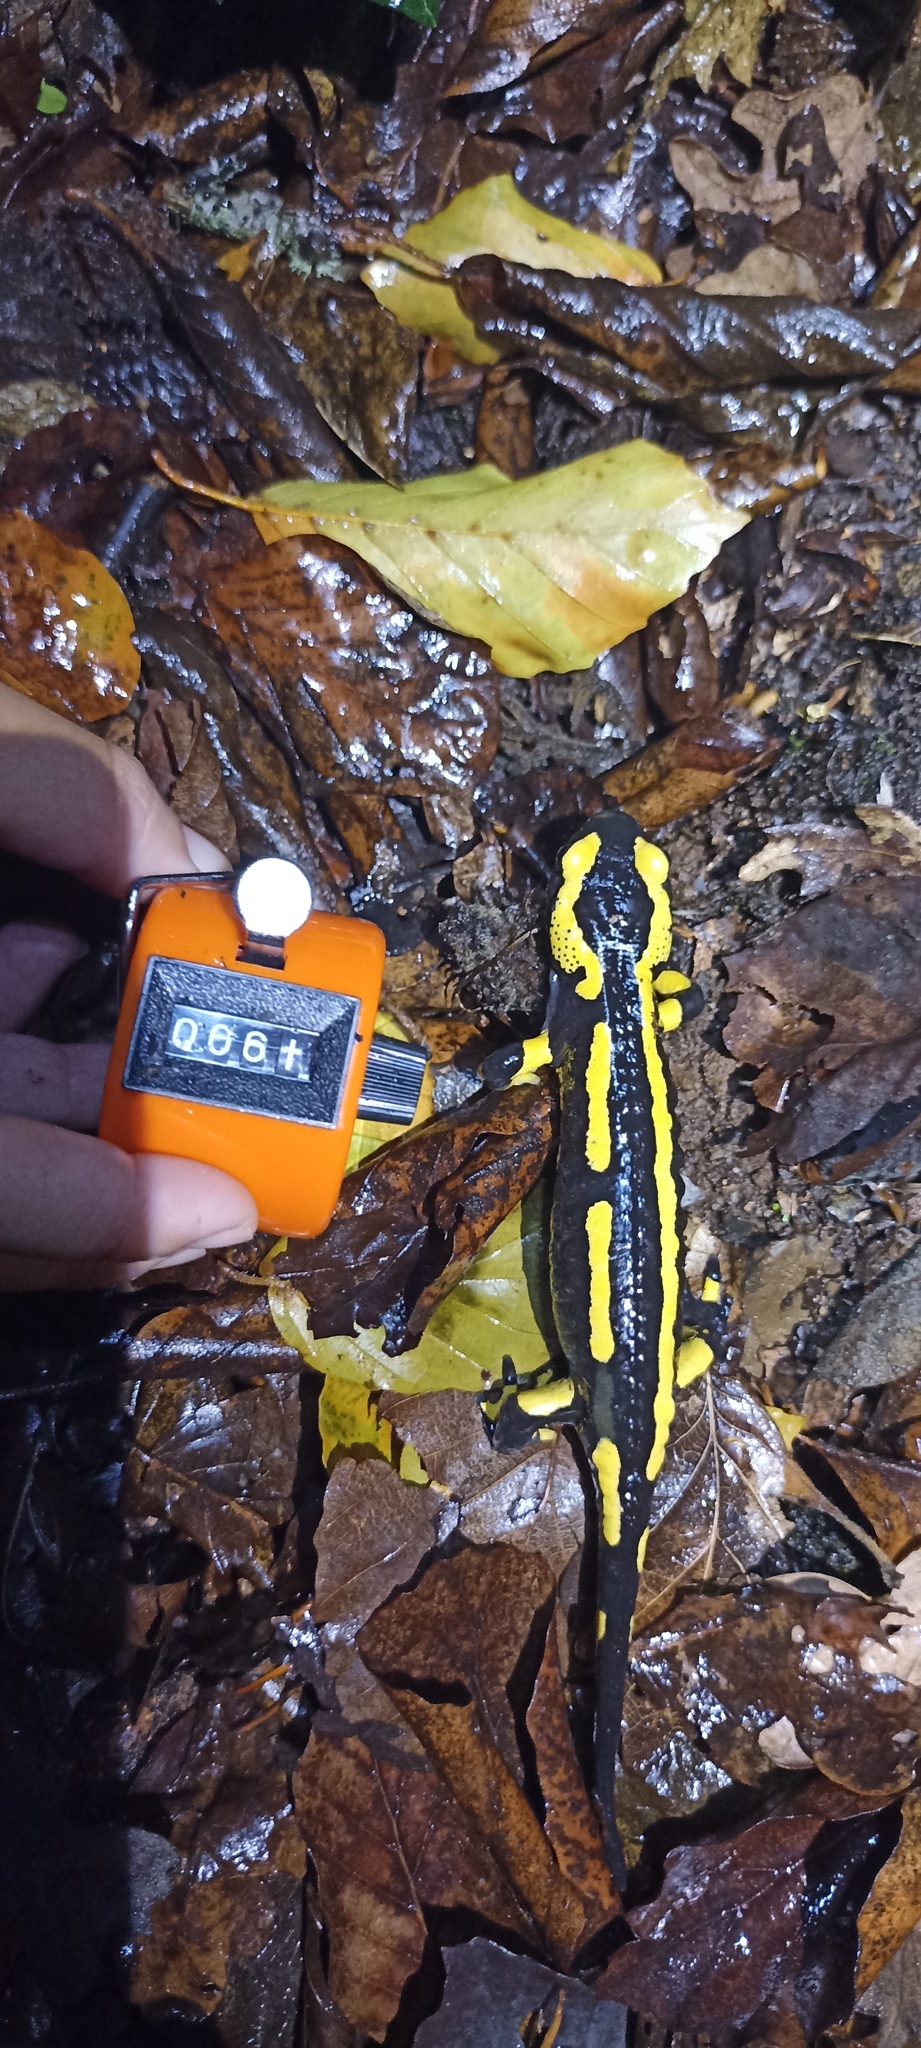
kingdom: Animalia
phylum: Chordata
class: Amphibia
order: Caudata
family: Salamandridae
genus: Salamandra
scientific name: Salamandra salamandra
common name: Fire salamander
